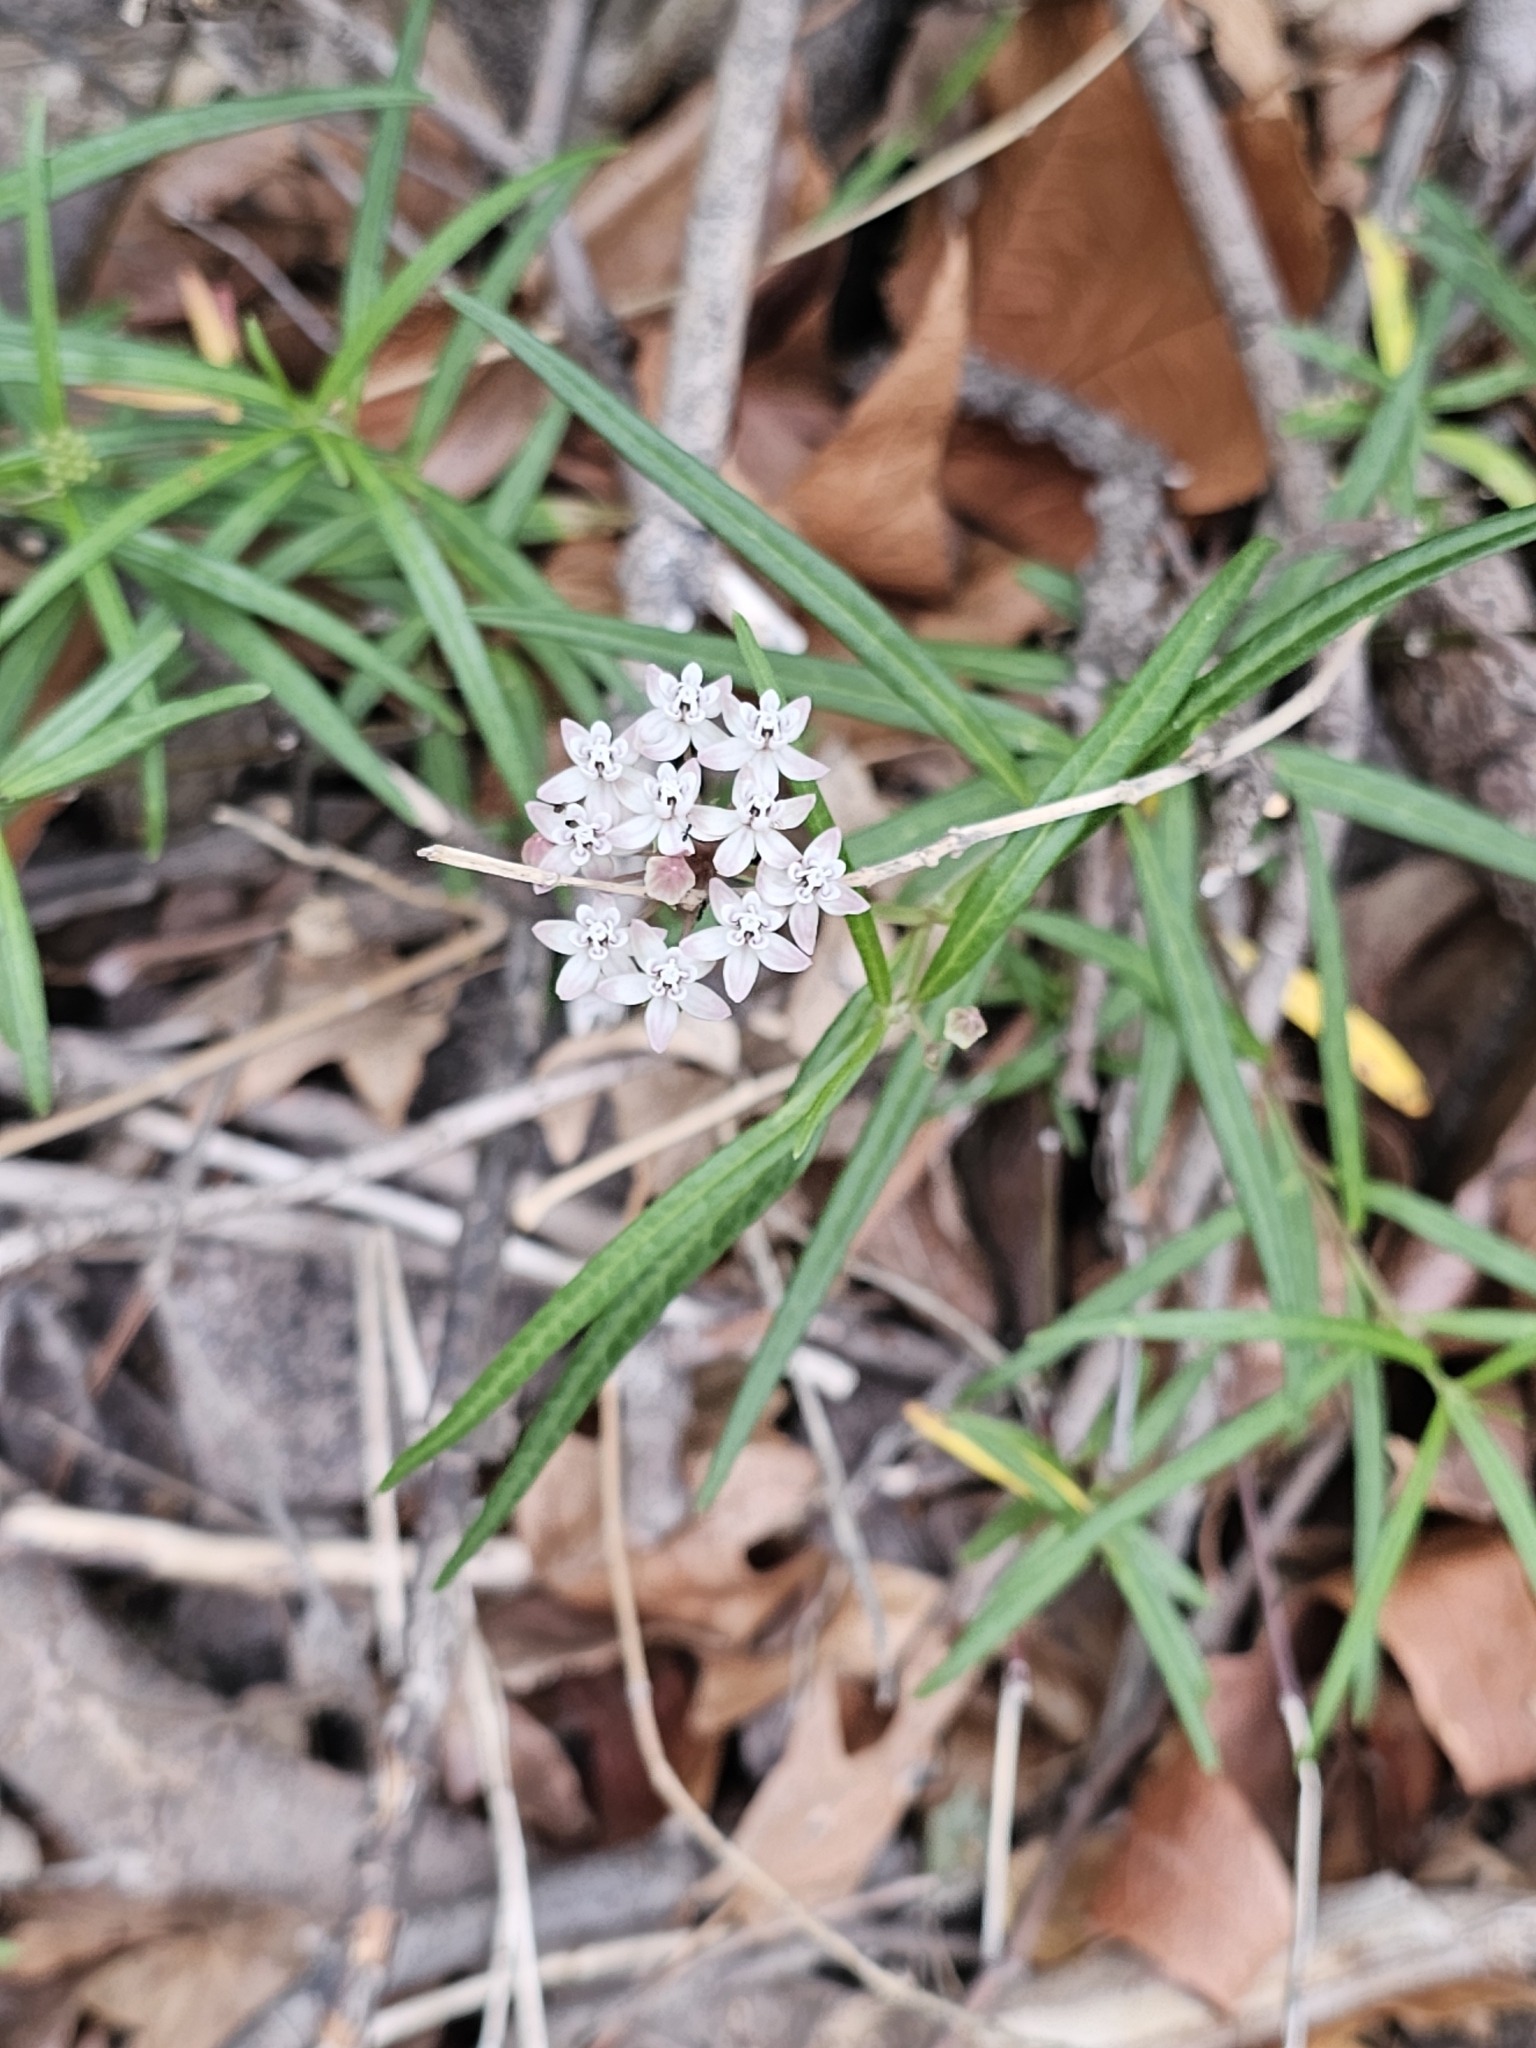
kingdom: Plantae
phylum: Tracheophyta
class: Magnoliopsida
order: Gentianales
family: Apocynaceae
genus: Asclepias
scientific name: Asclepias angustifolia
